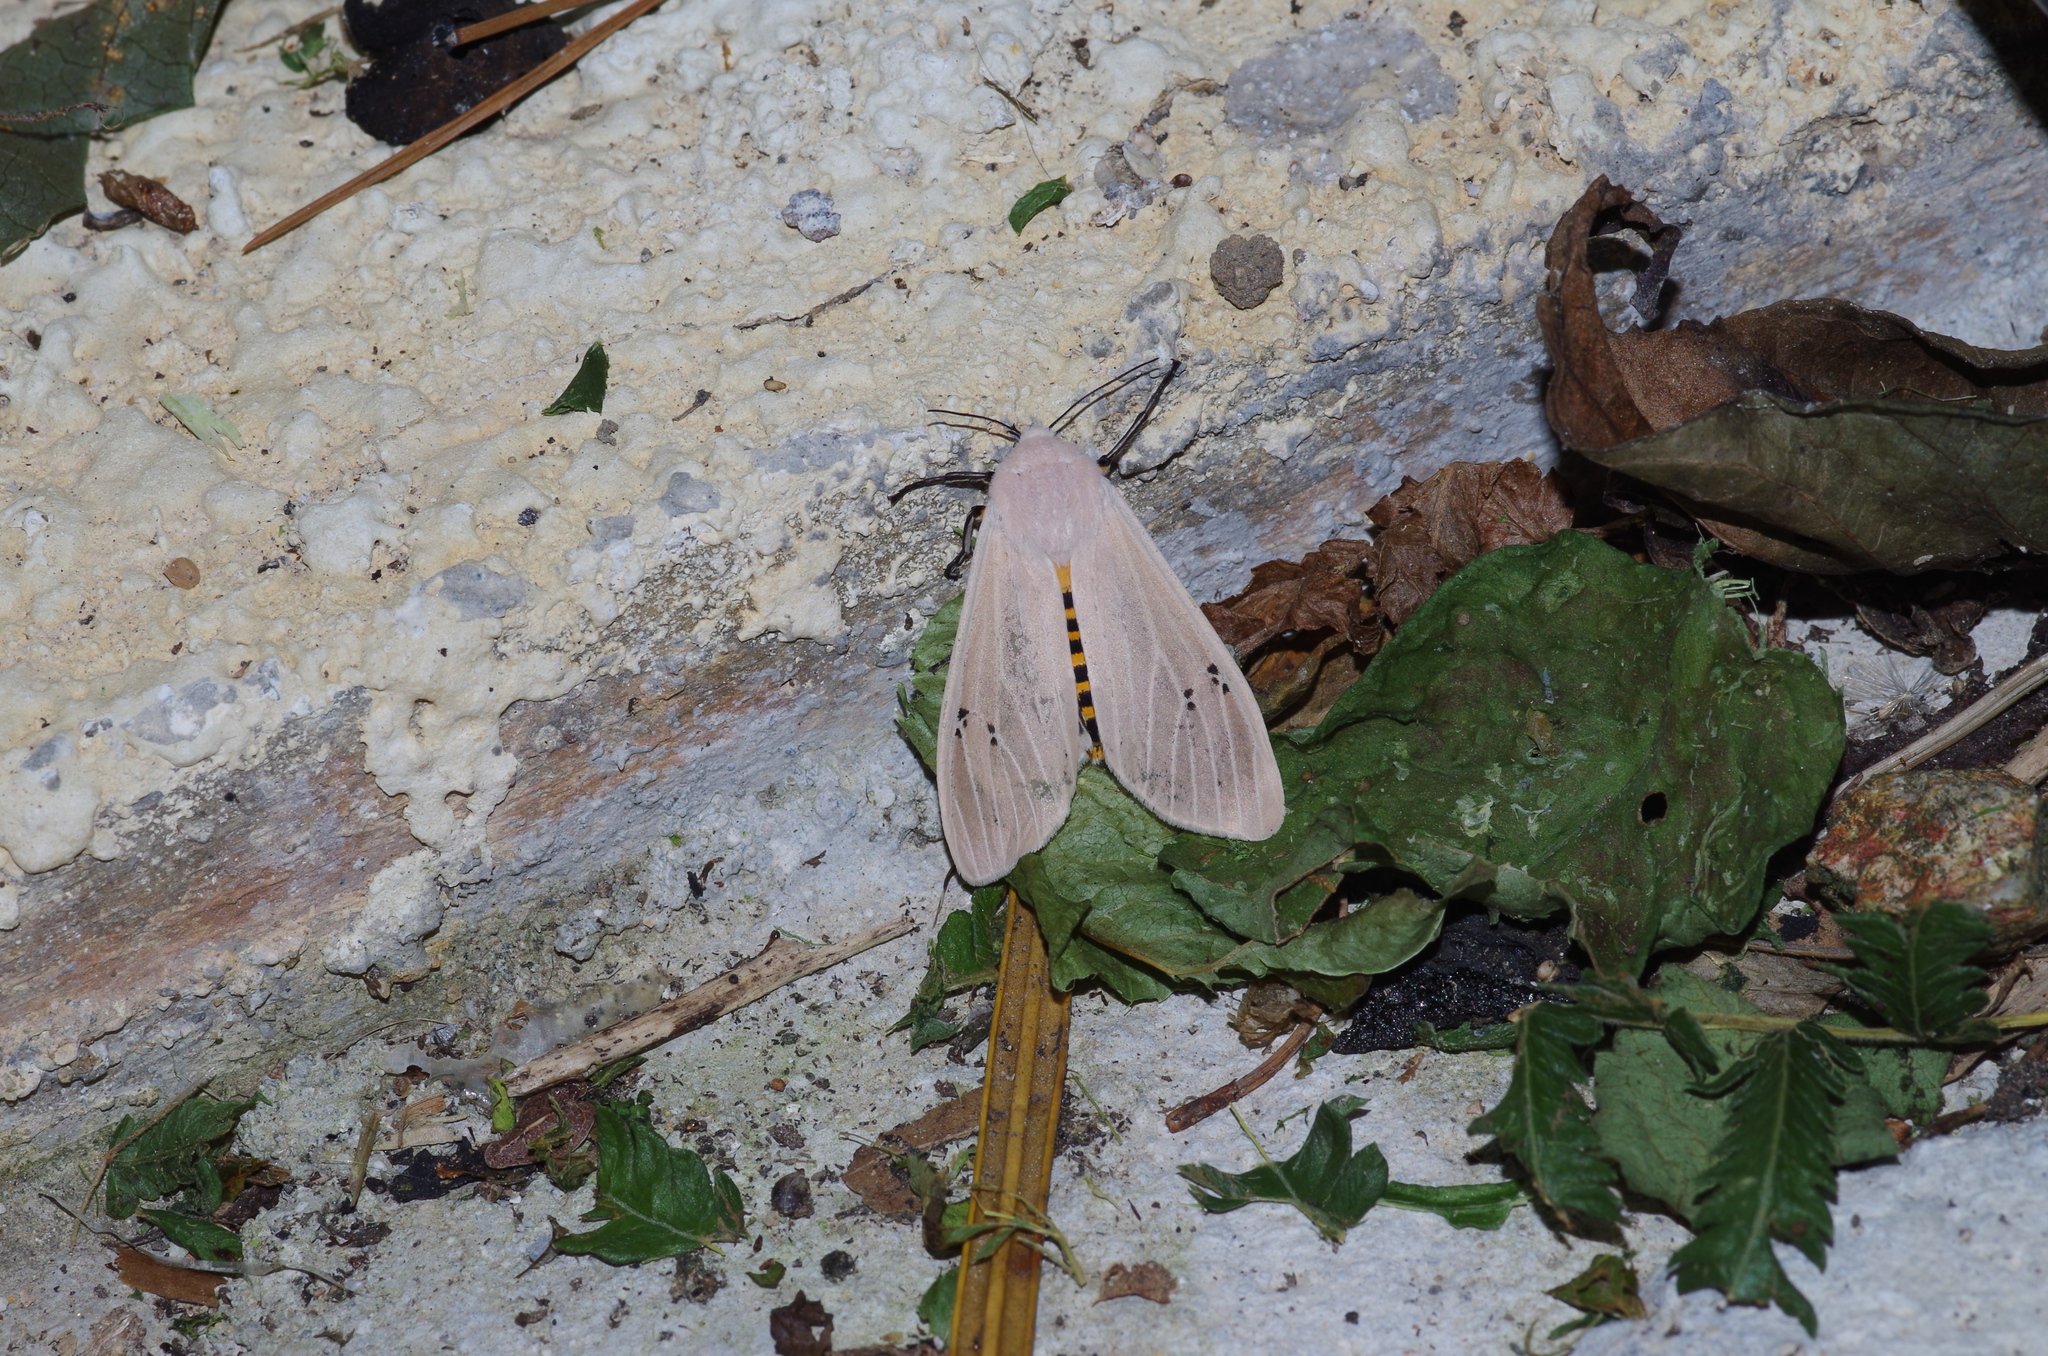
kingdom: Animalia
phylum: Arthropoda
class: Insecta
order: Lepidoptera
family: Erebidae
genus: Creatonotos
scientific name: Creatonotos transiens
